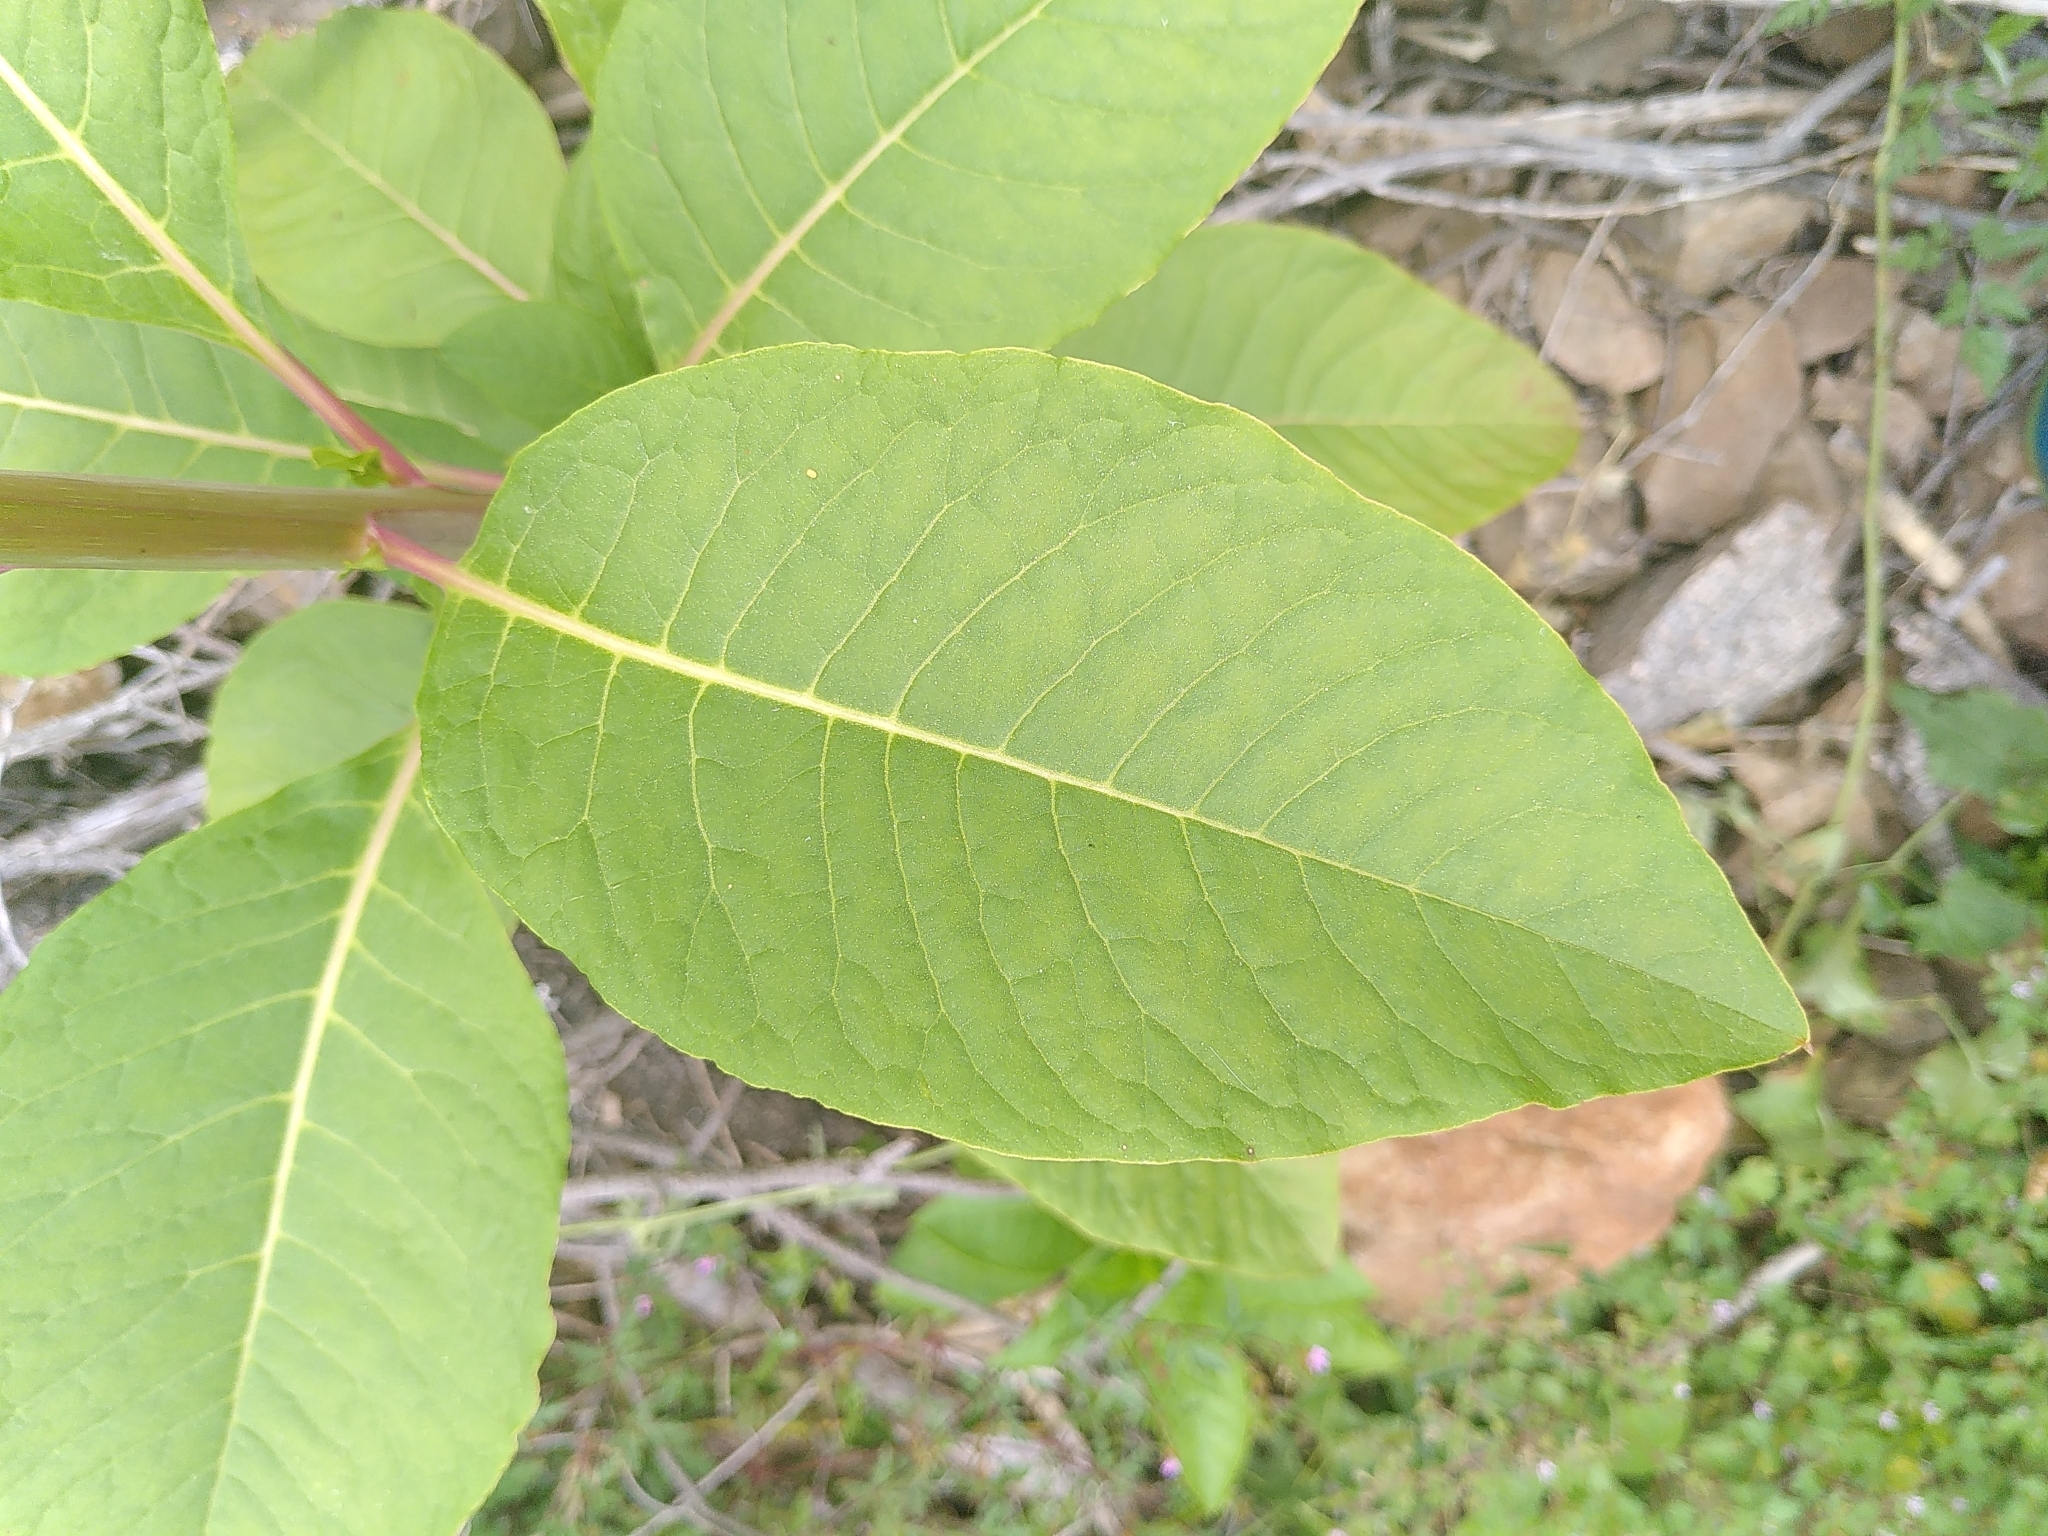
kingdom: Plantae
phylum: Tracheophyta
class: Magnoliopsida
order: Caryophyllales
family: Phytolaccaceae
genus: Phytolacca
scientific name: Phytolacca americana
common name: American pokeweed
